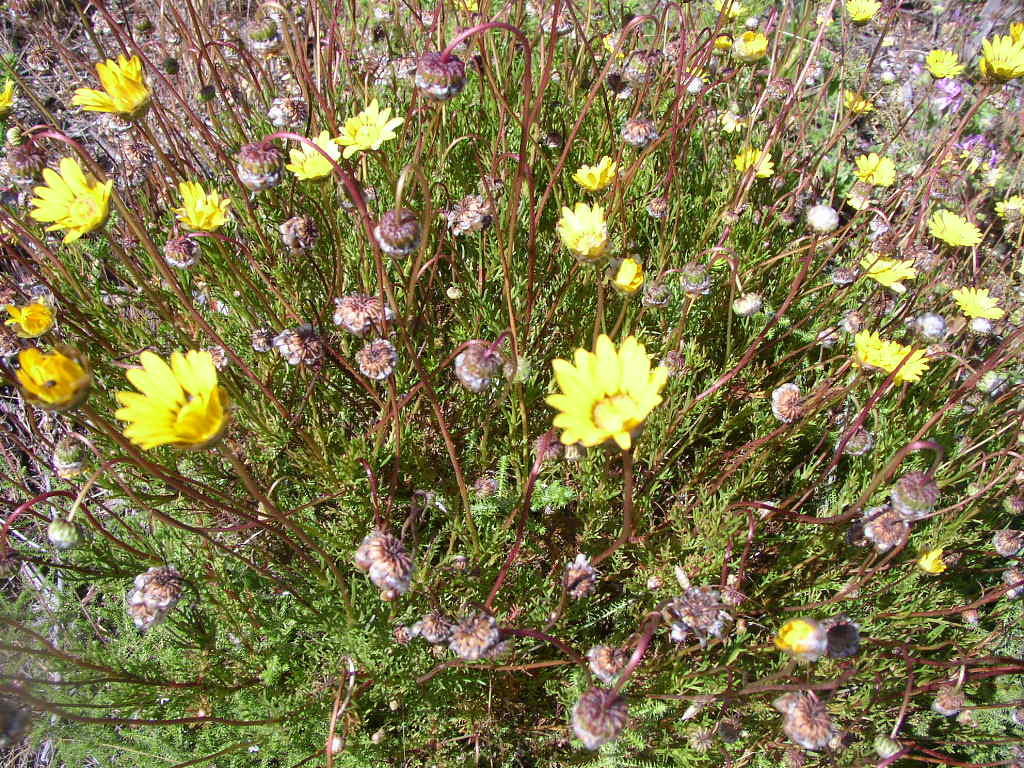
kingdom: Plantae
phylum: Tracheophyta
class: Magnoliopsida
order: Asterales
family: Asteraceae
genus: Ursinia
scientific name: Ursinia paleacea
